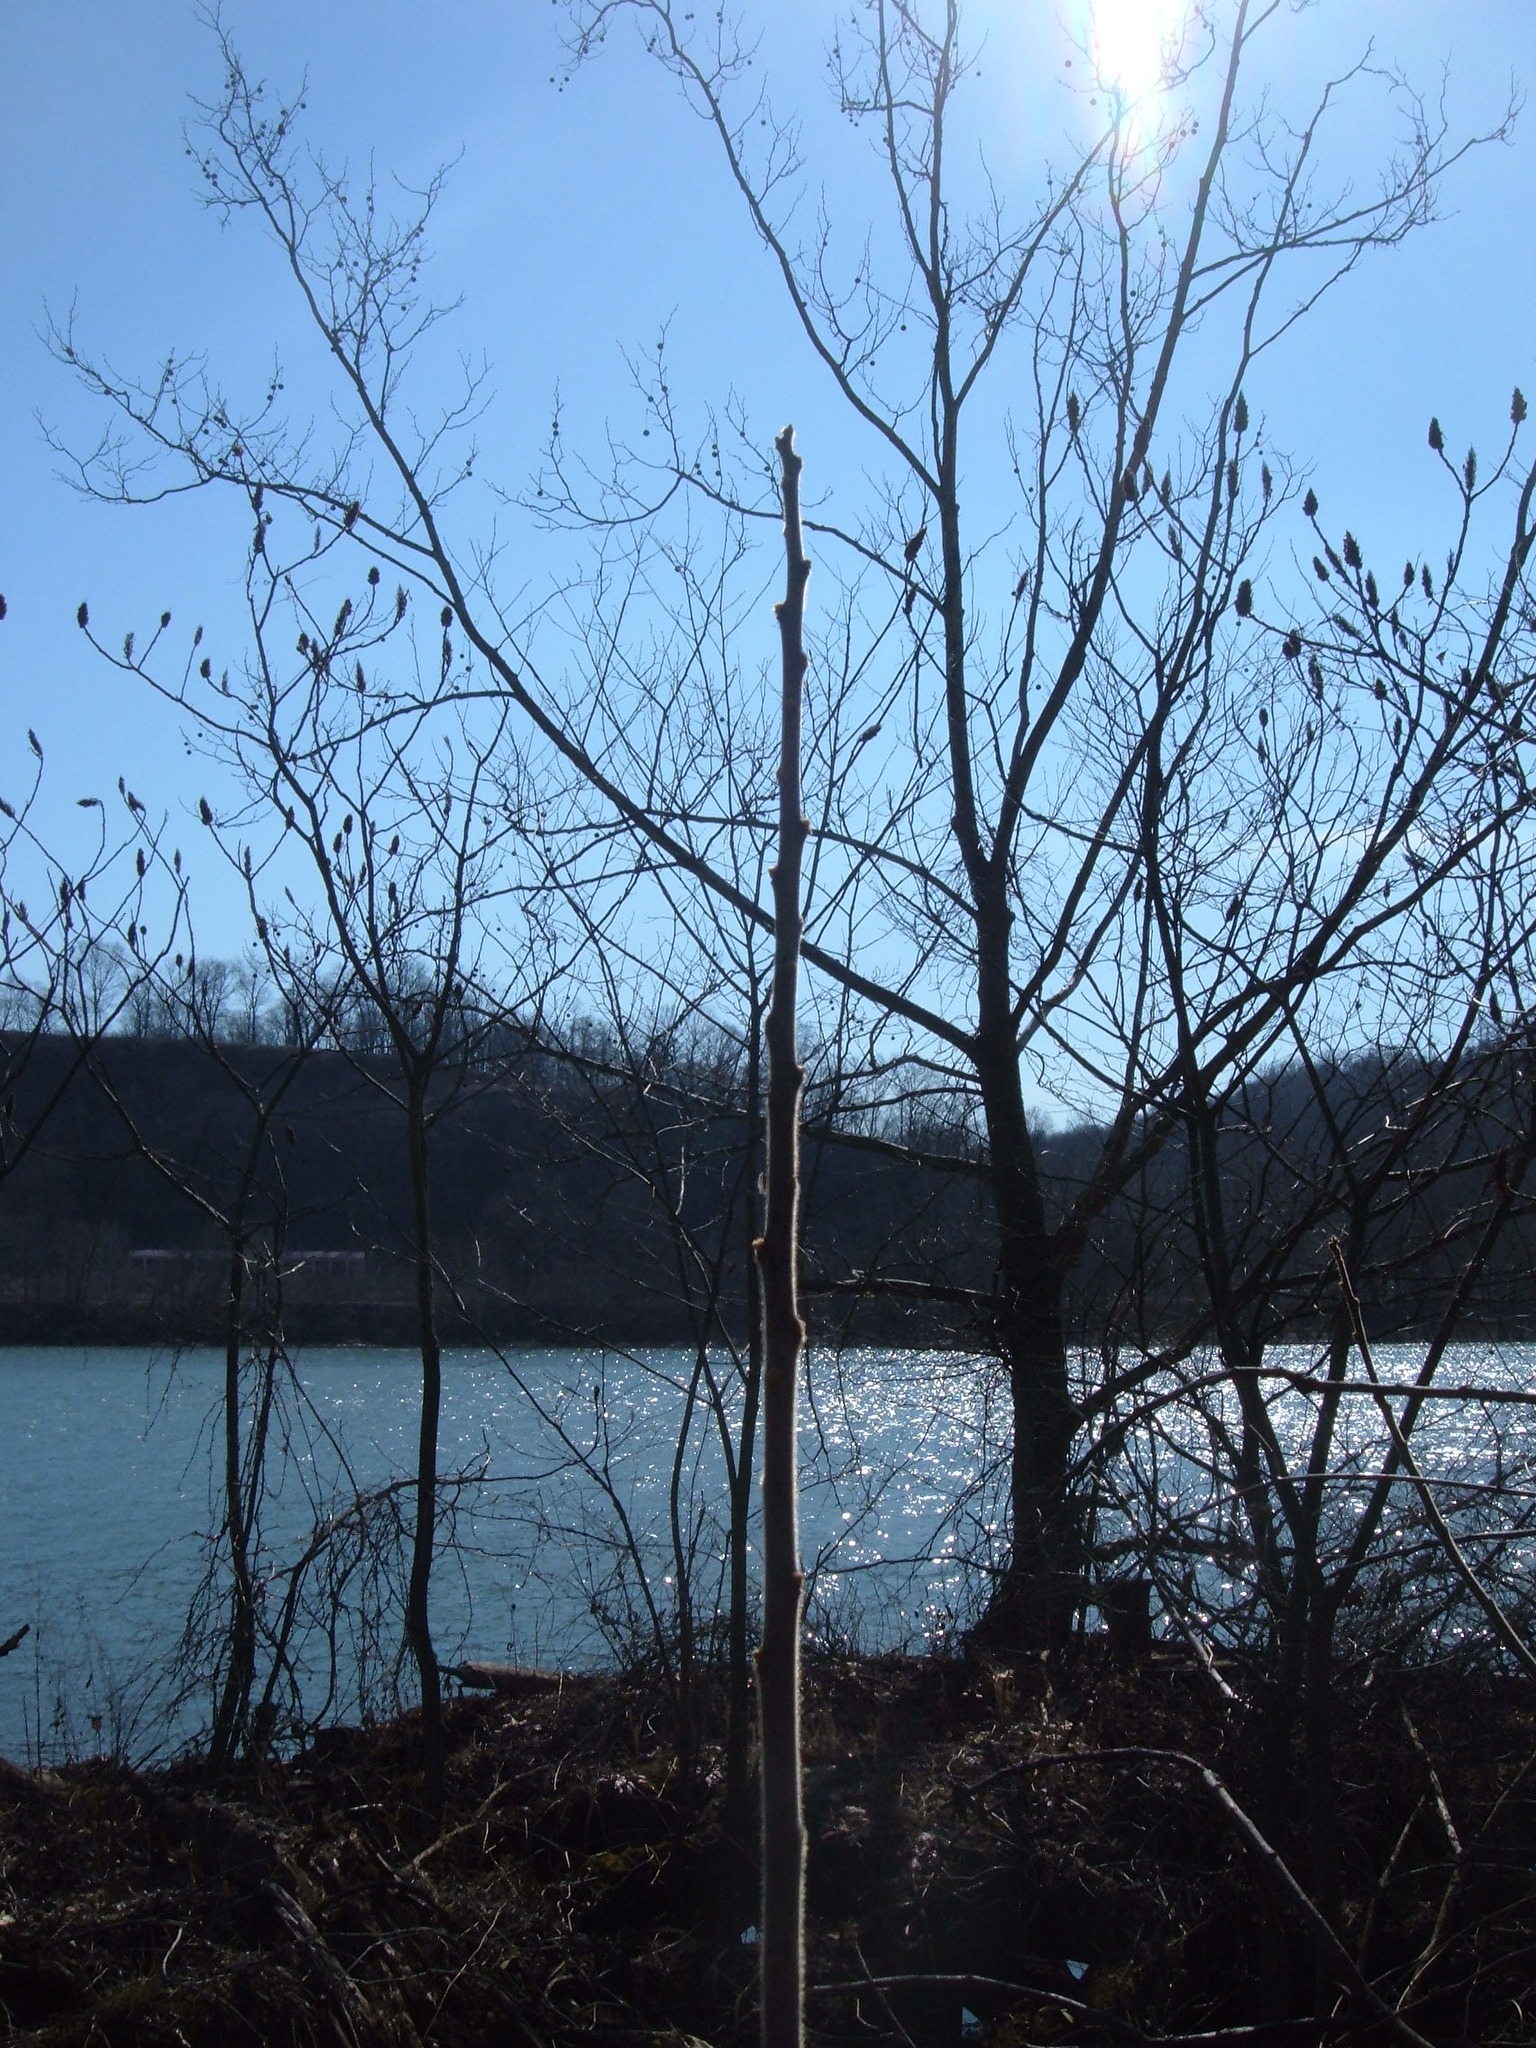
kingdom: Plantae
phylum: Tracheophyta
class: Magnoliopsida
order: Sapindales
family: Anacardiaceae
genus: Rhus
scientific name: Rhus typhina
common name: Staghorn sumac
